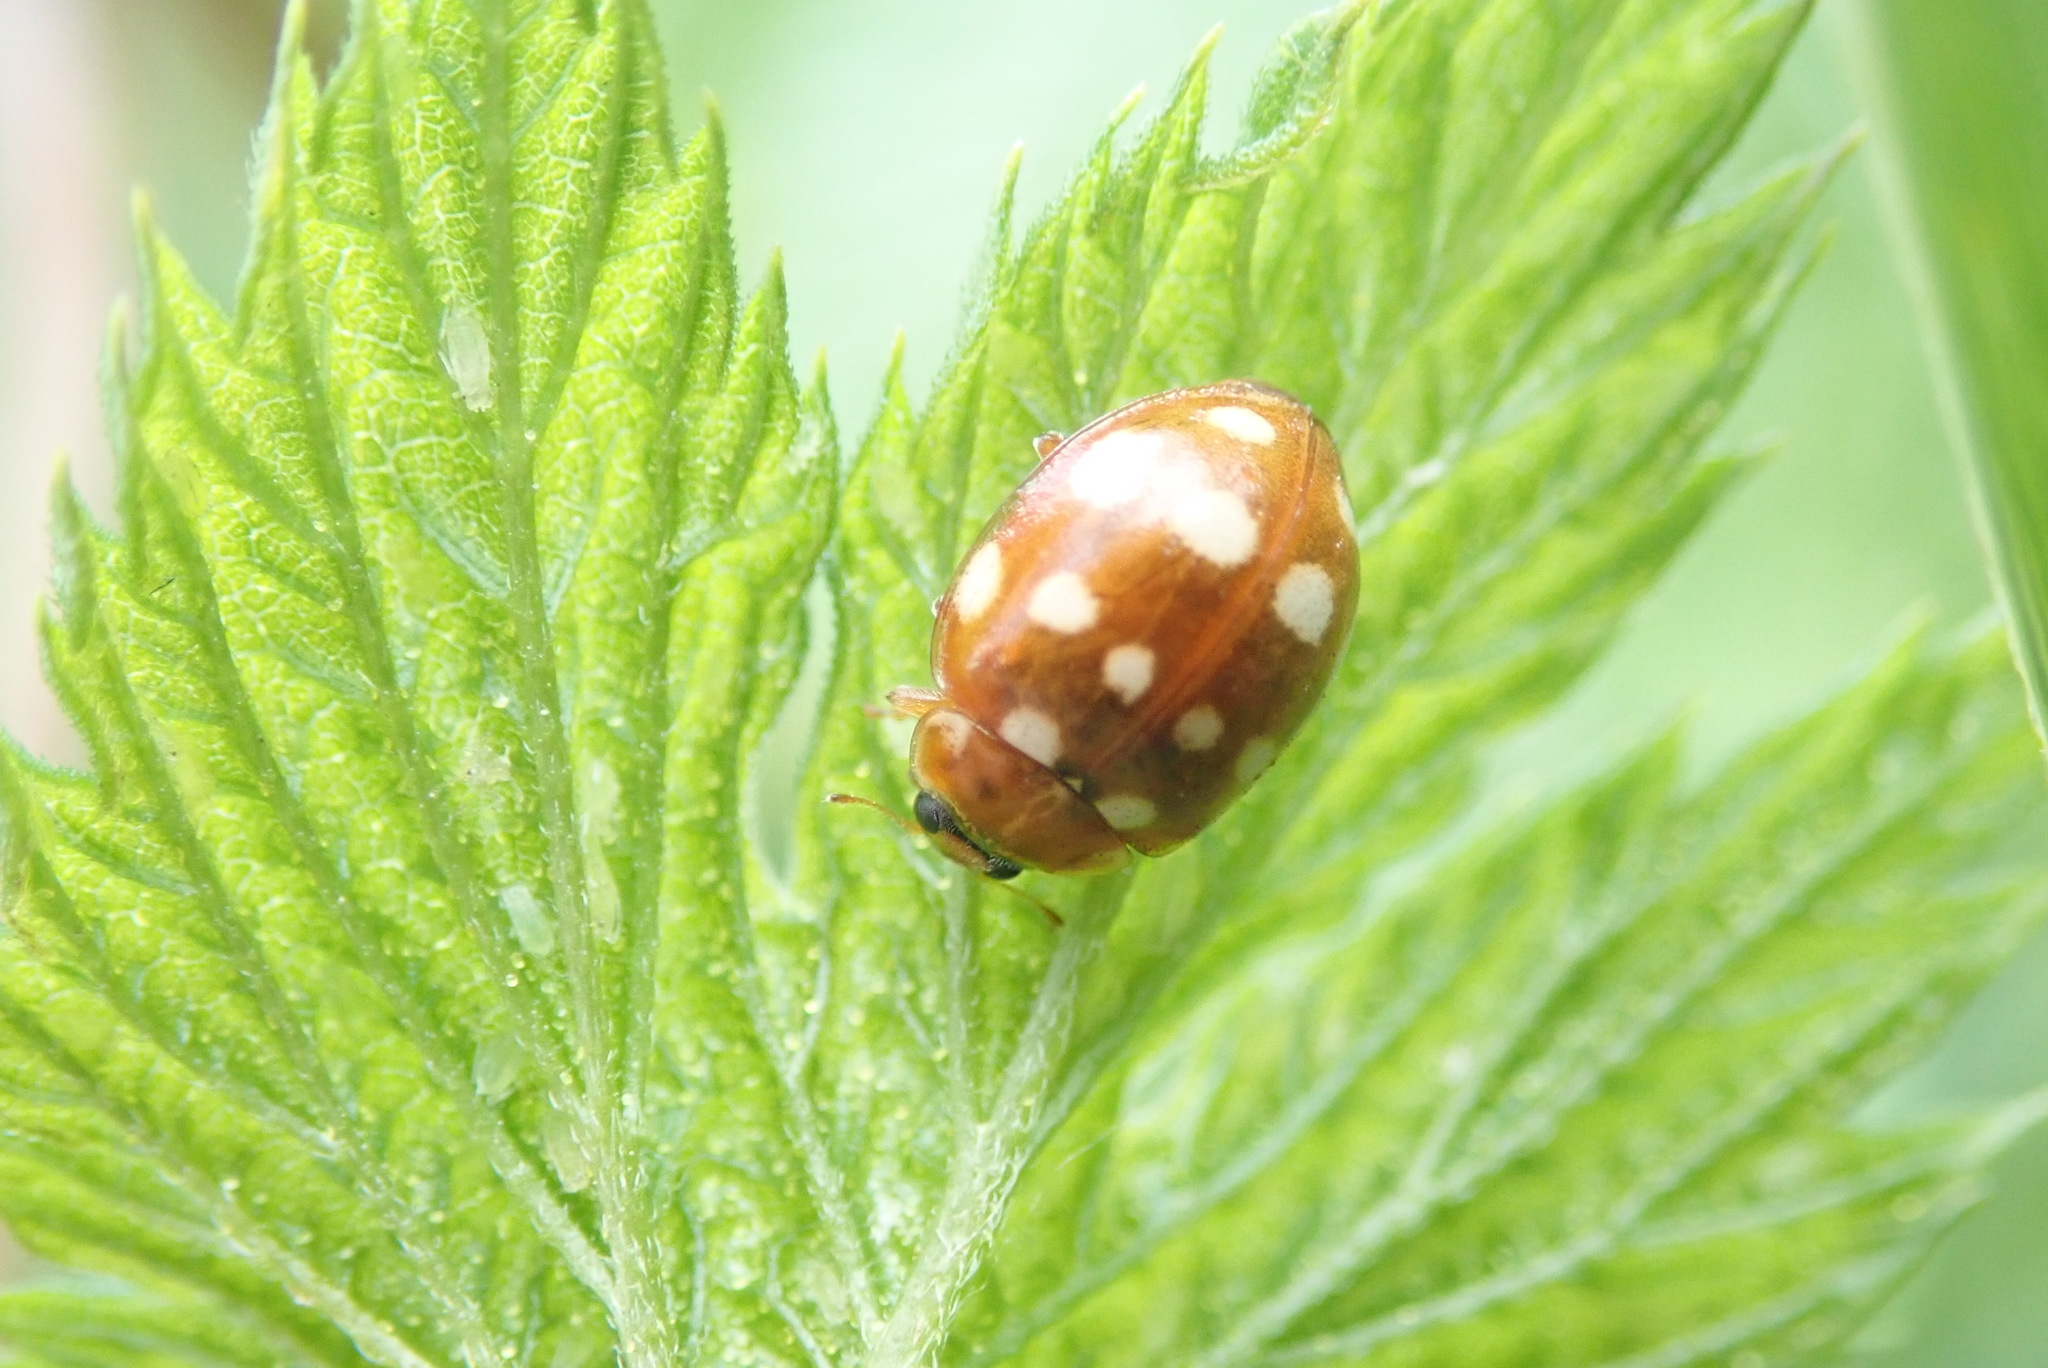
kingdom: Animalia
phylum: Arthropoda
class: Insecta
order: Coleoptera
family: Coccinellidae
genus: Calvia
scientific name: Calvia quatuordecimguttata
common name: Cream-spot ladybird
